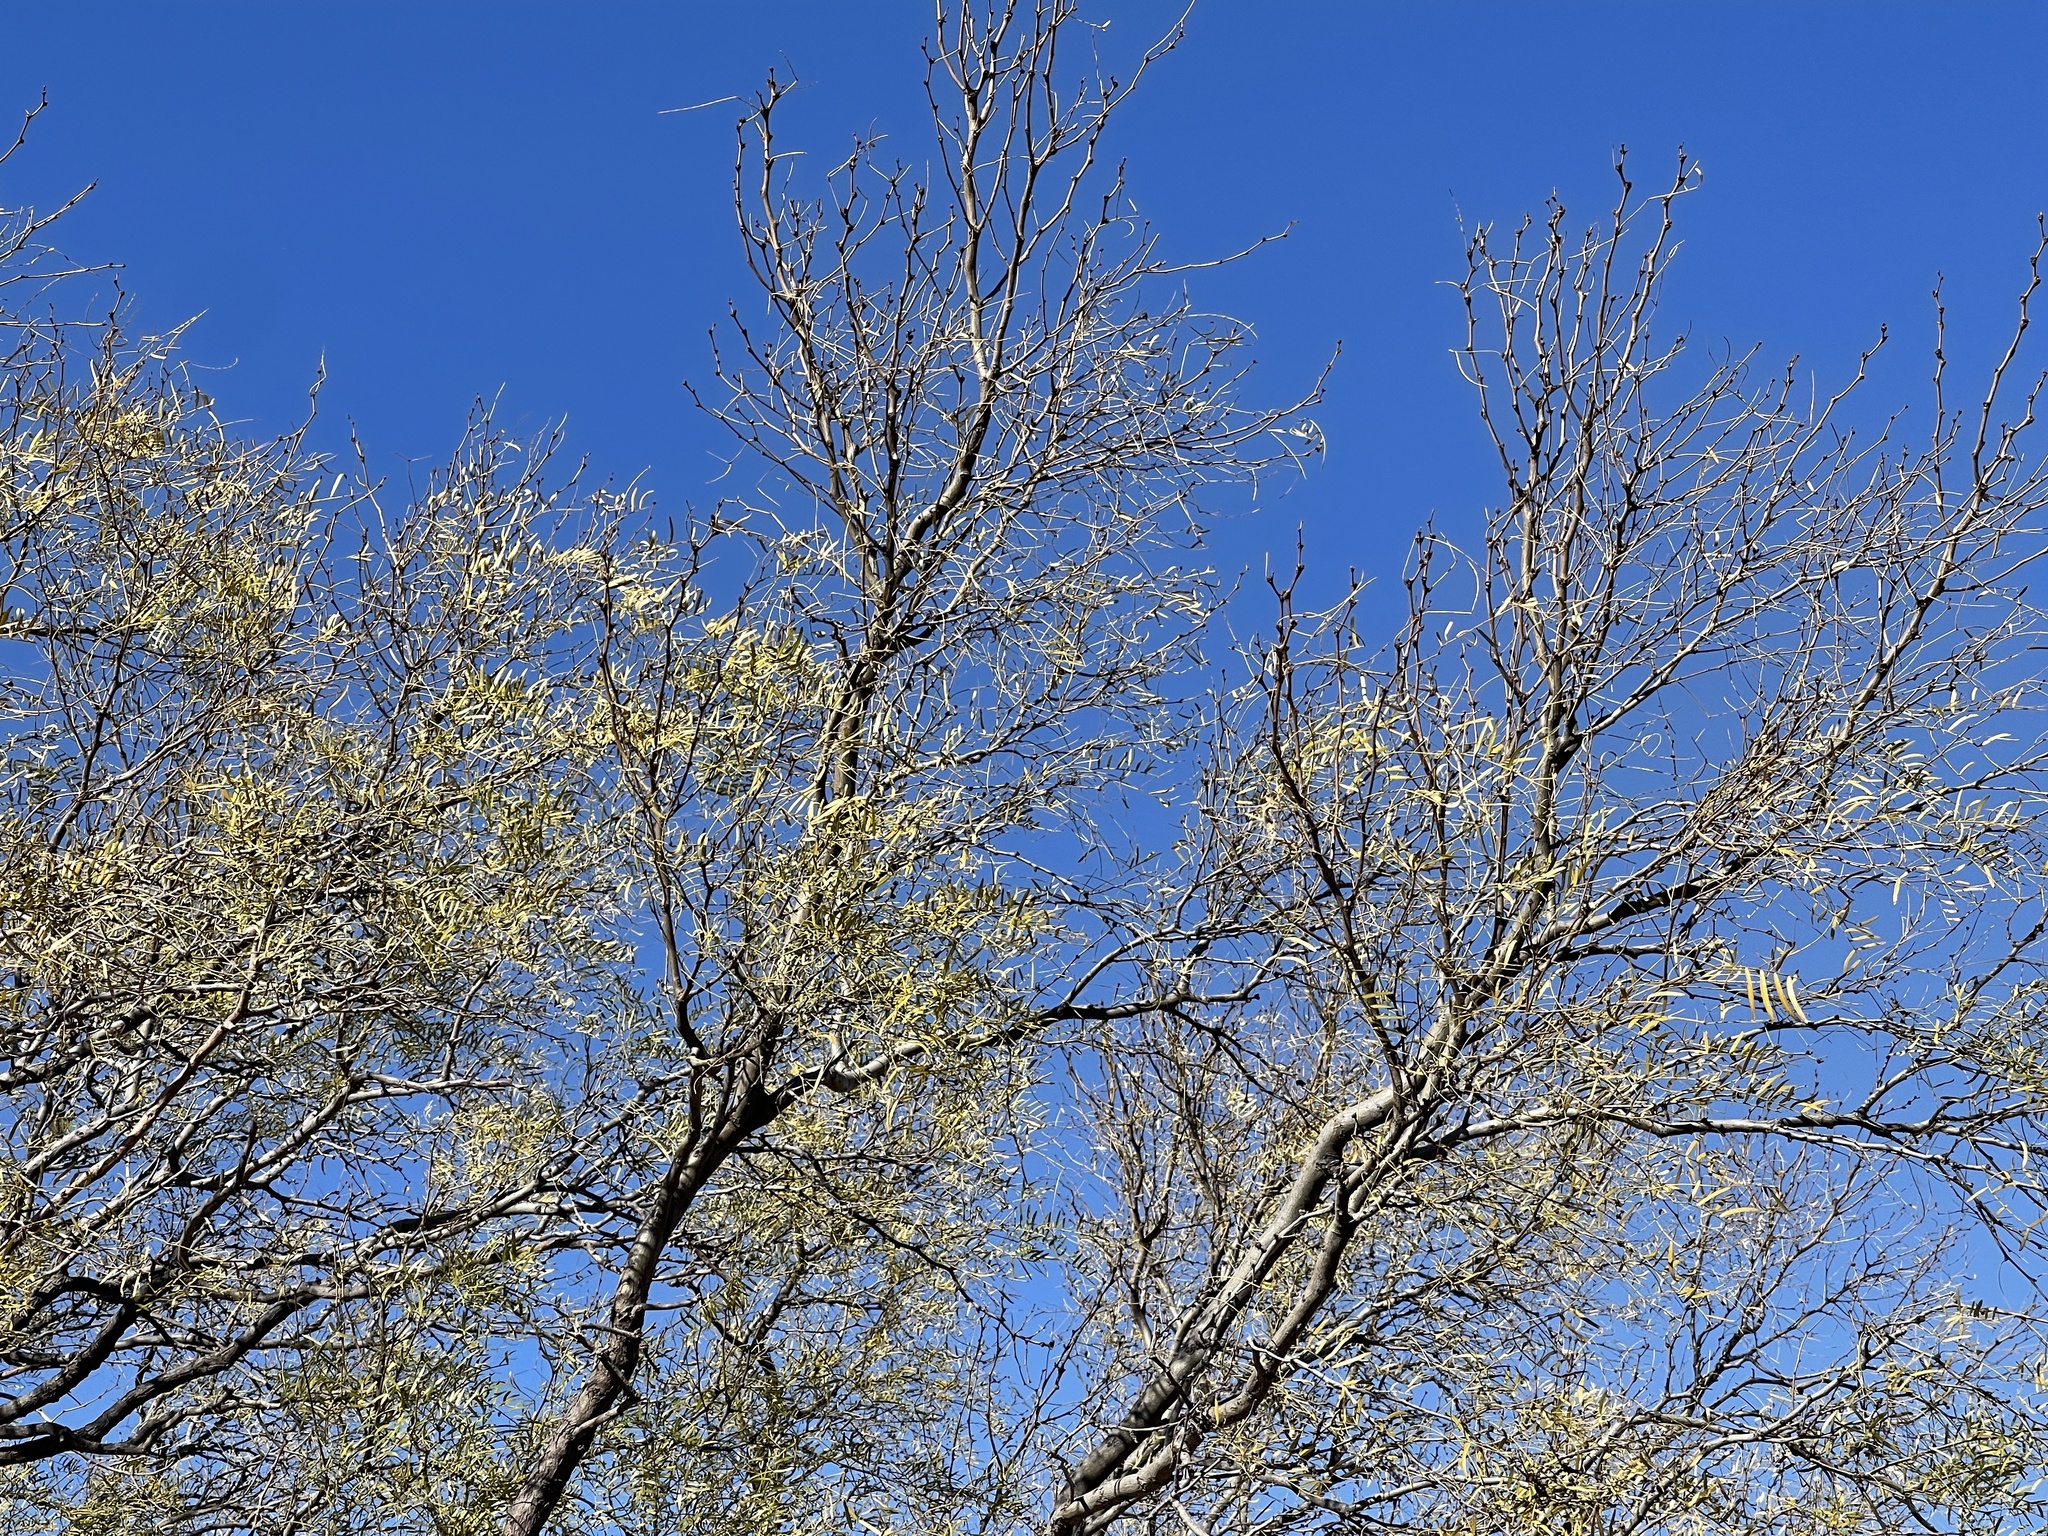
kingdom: Plantae
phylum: Tracheophyta
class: Magnoliopsida
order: Fabales
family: Fabaceae
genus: Prosopis
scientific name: Prosopis glandulosa
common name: Honey mesquite
